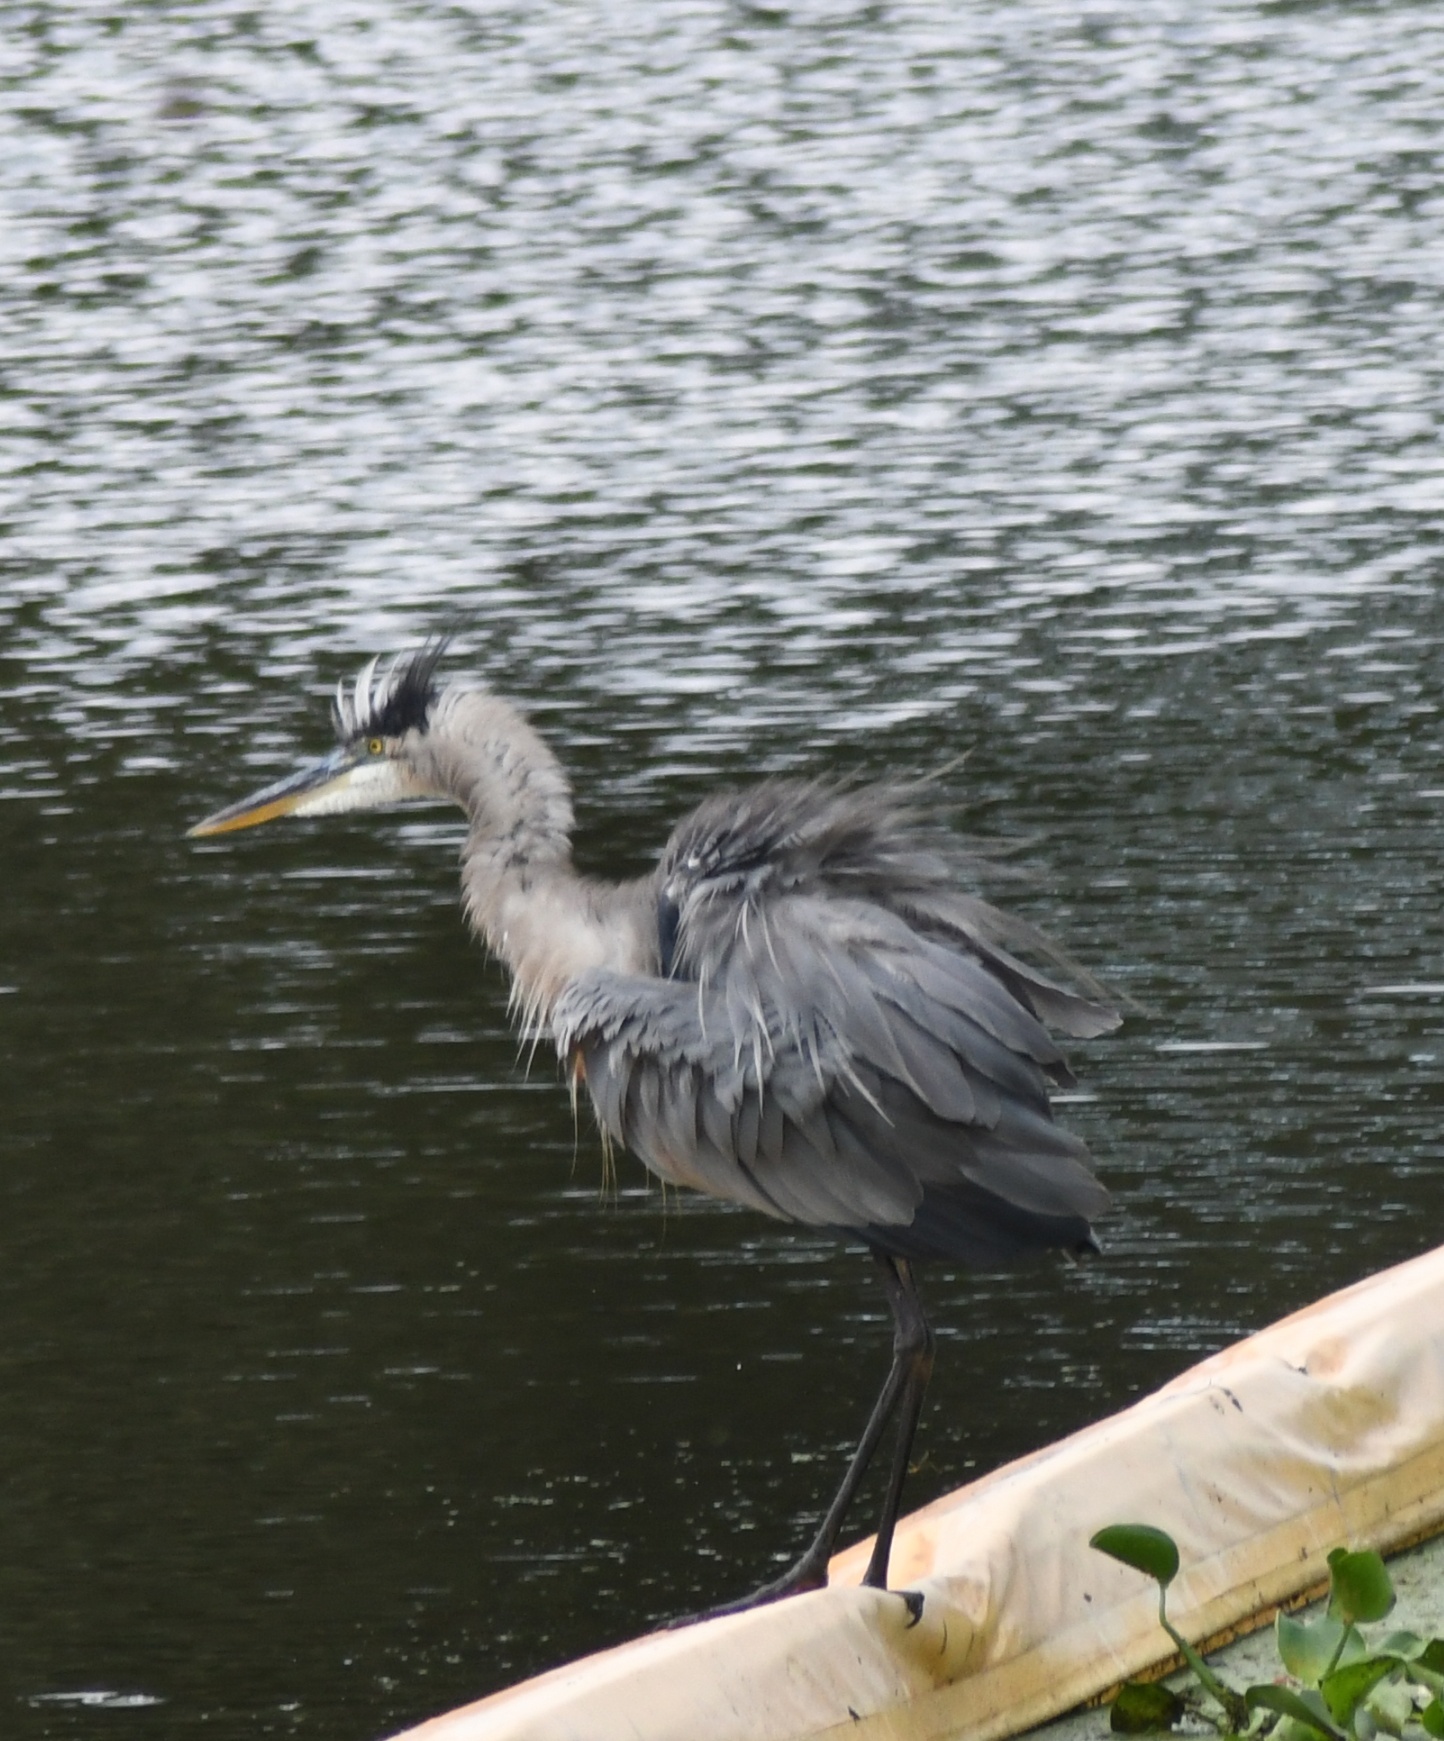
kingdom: Animalia
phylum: Chordata
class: Aves
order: Pelecaniformes
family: Ardeidae
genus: Ardea
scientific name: Ardea herodias
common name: Great blue heron
